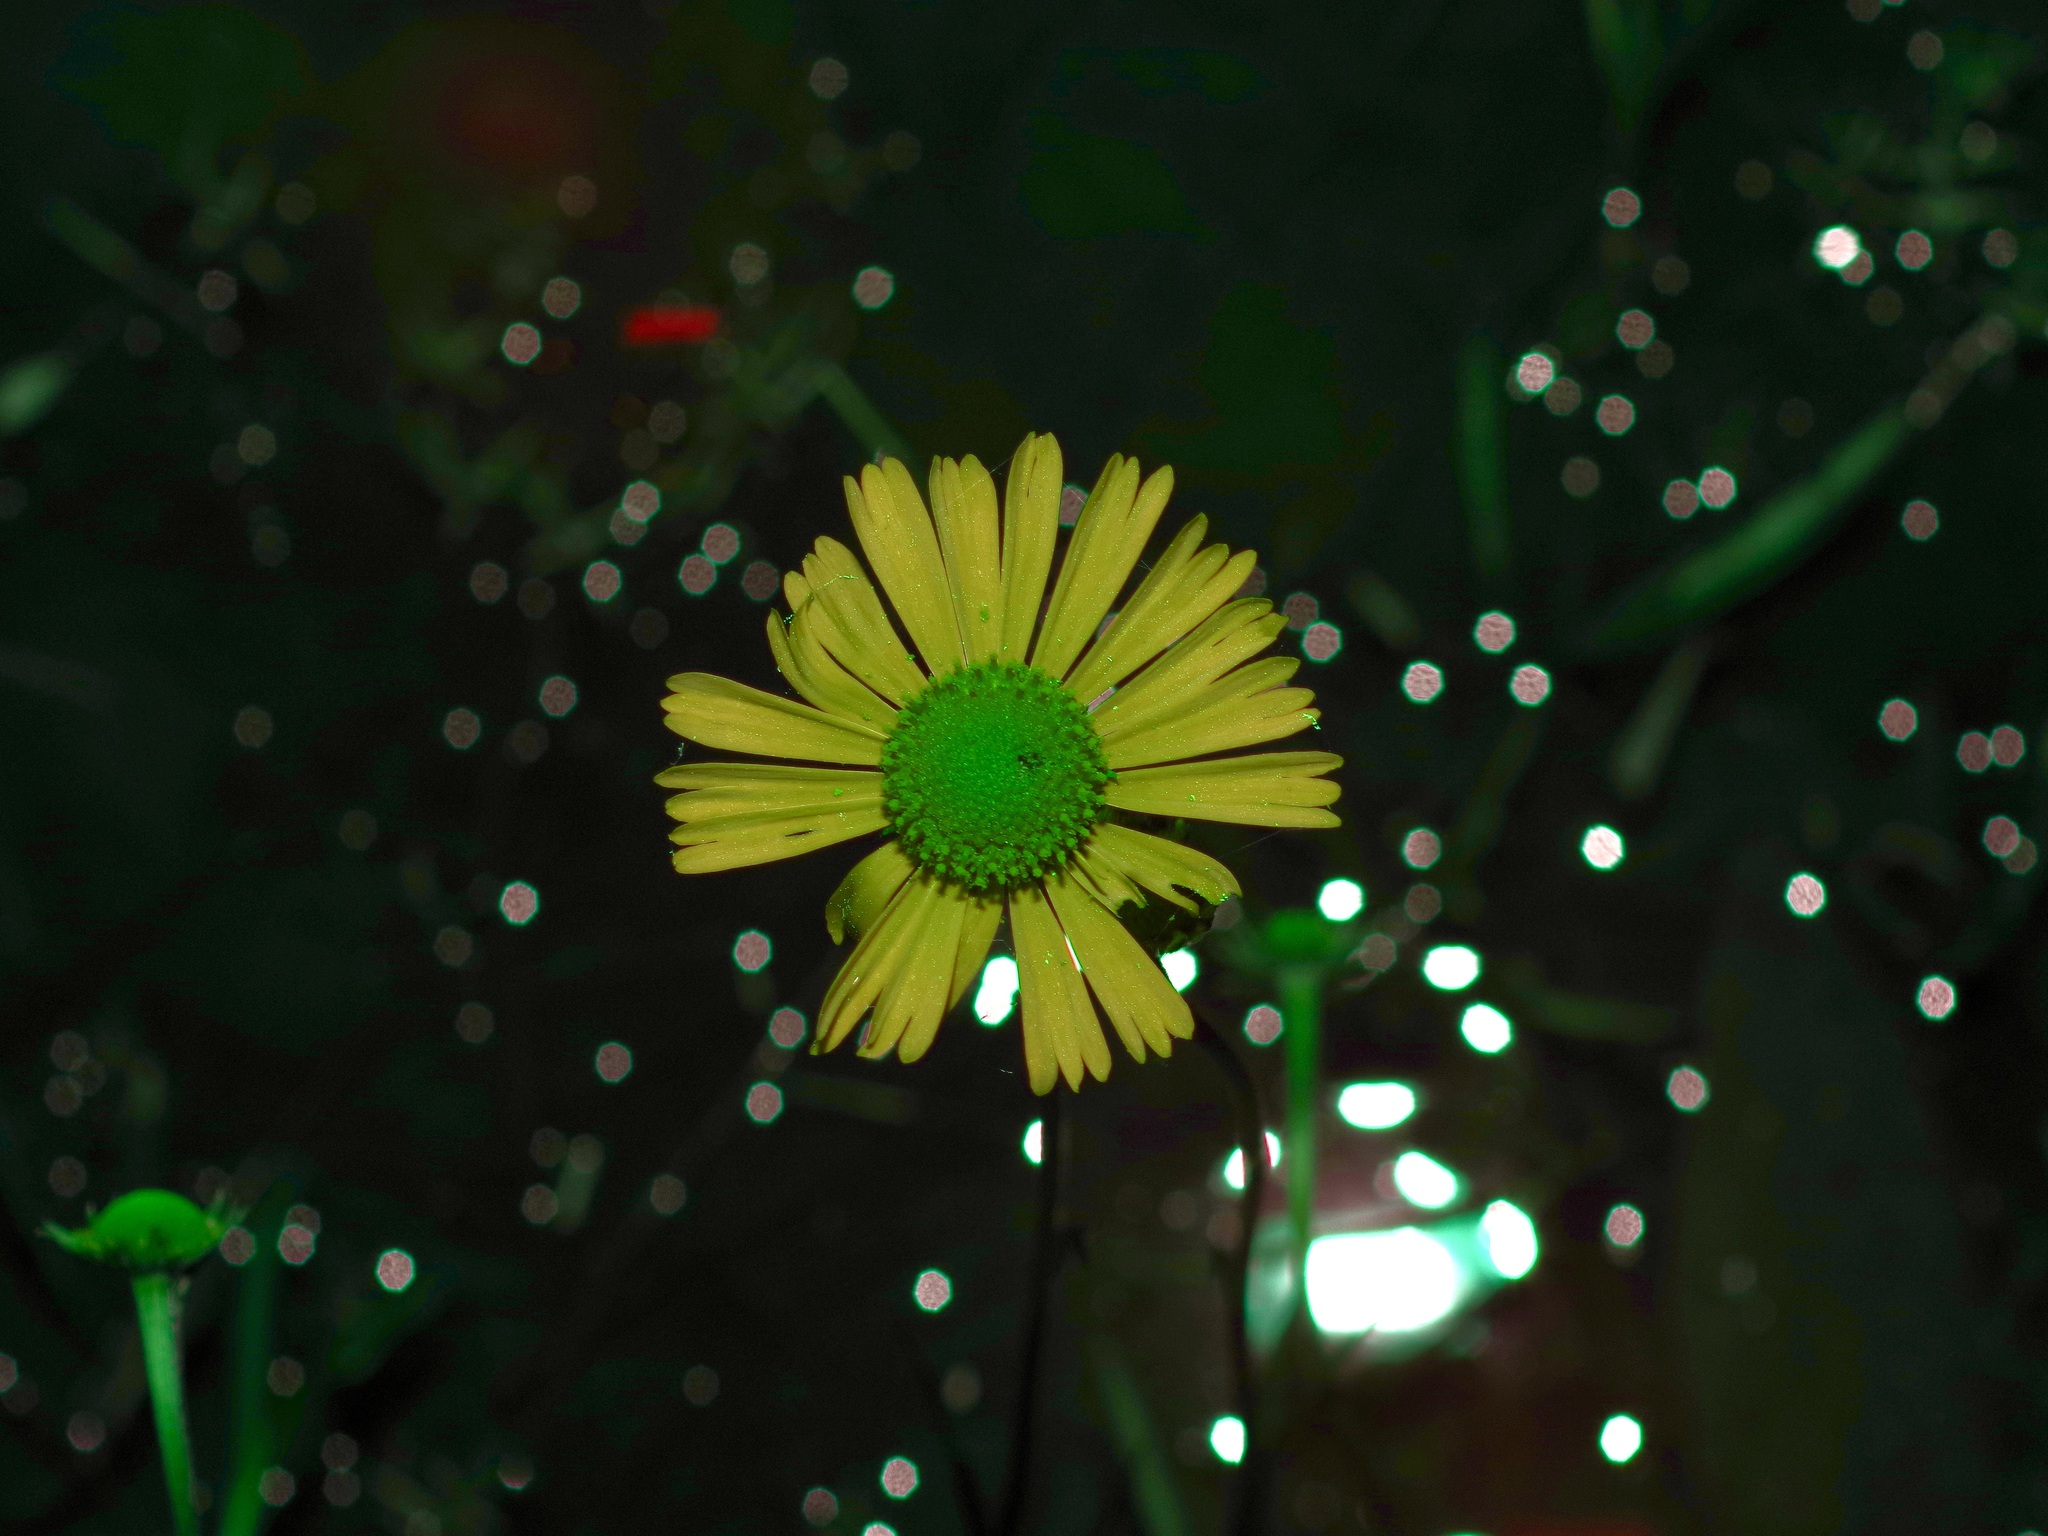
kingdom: Plantae
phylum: Tracheophyta
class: Magnoliopsida
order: Asterales
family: Asteraceae
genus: Helenium
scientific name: Helenium drummondii
